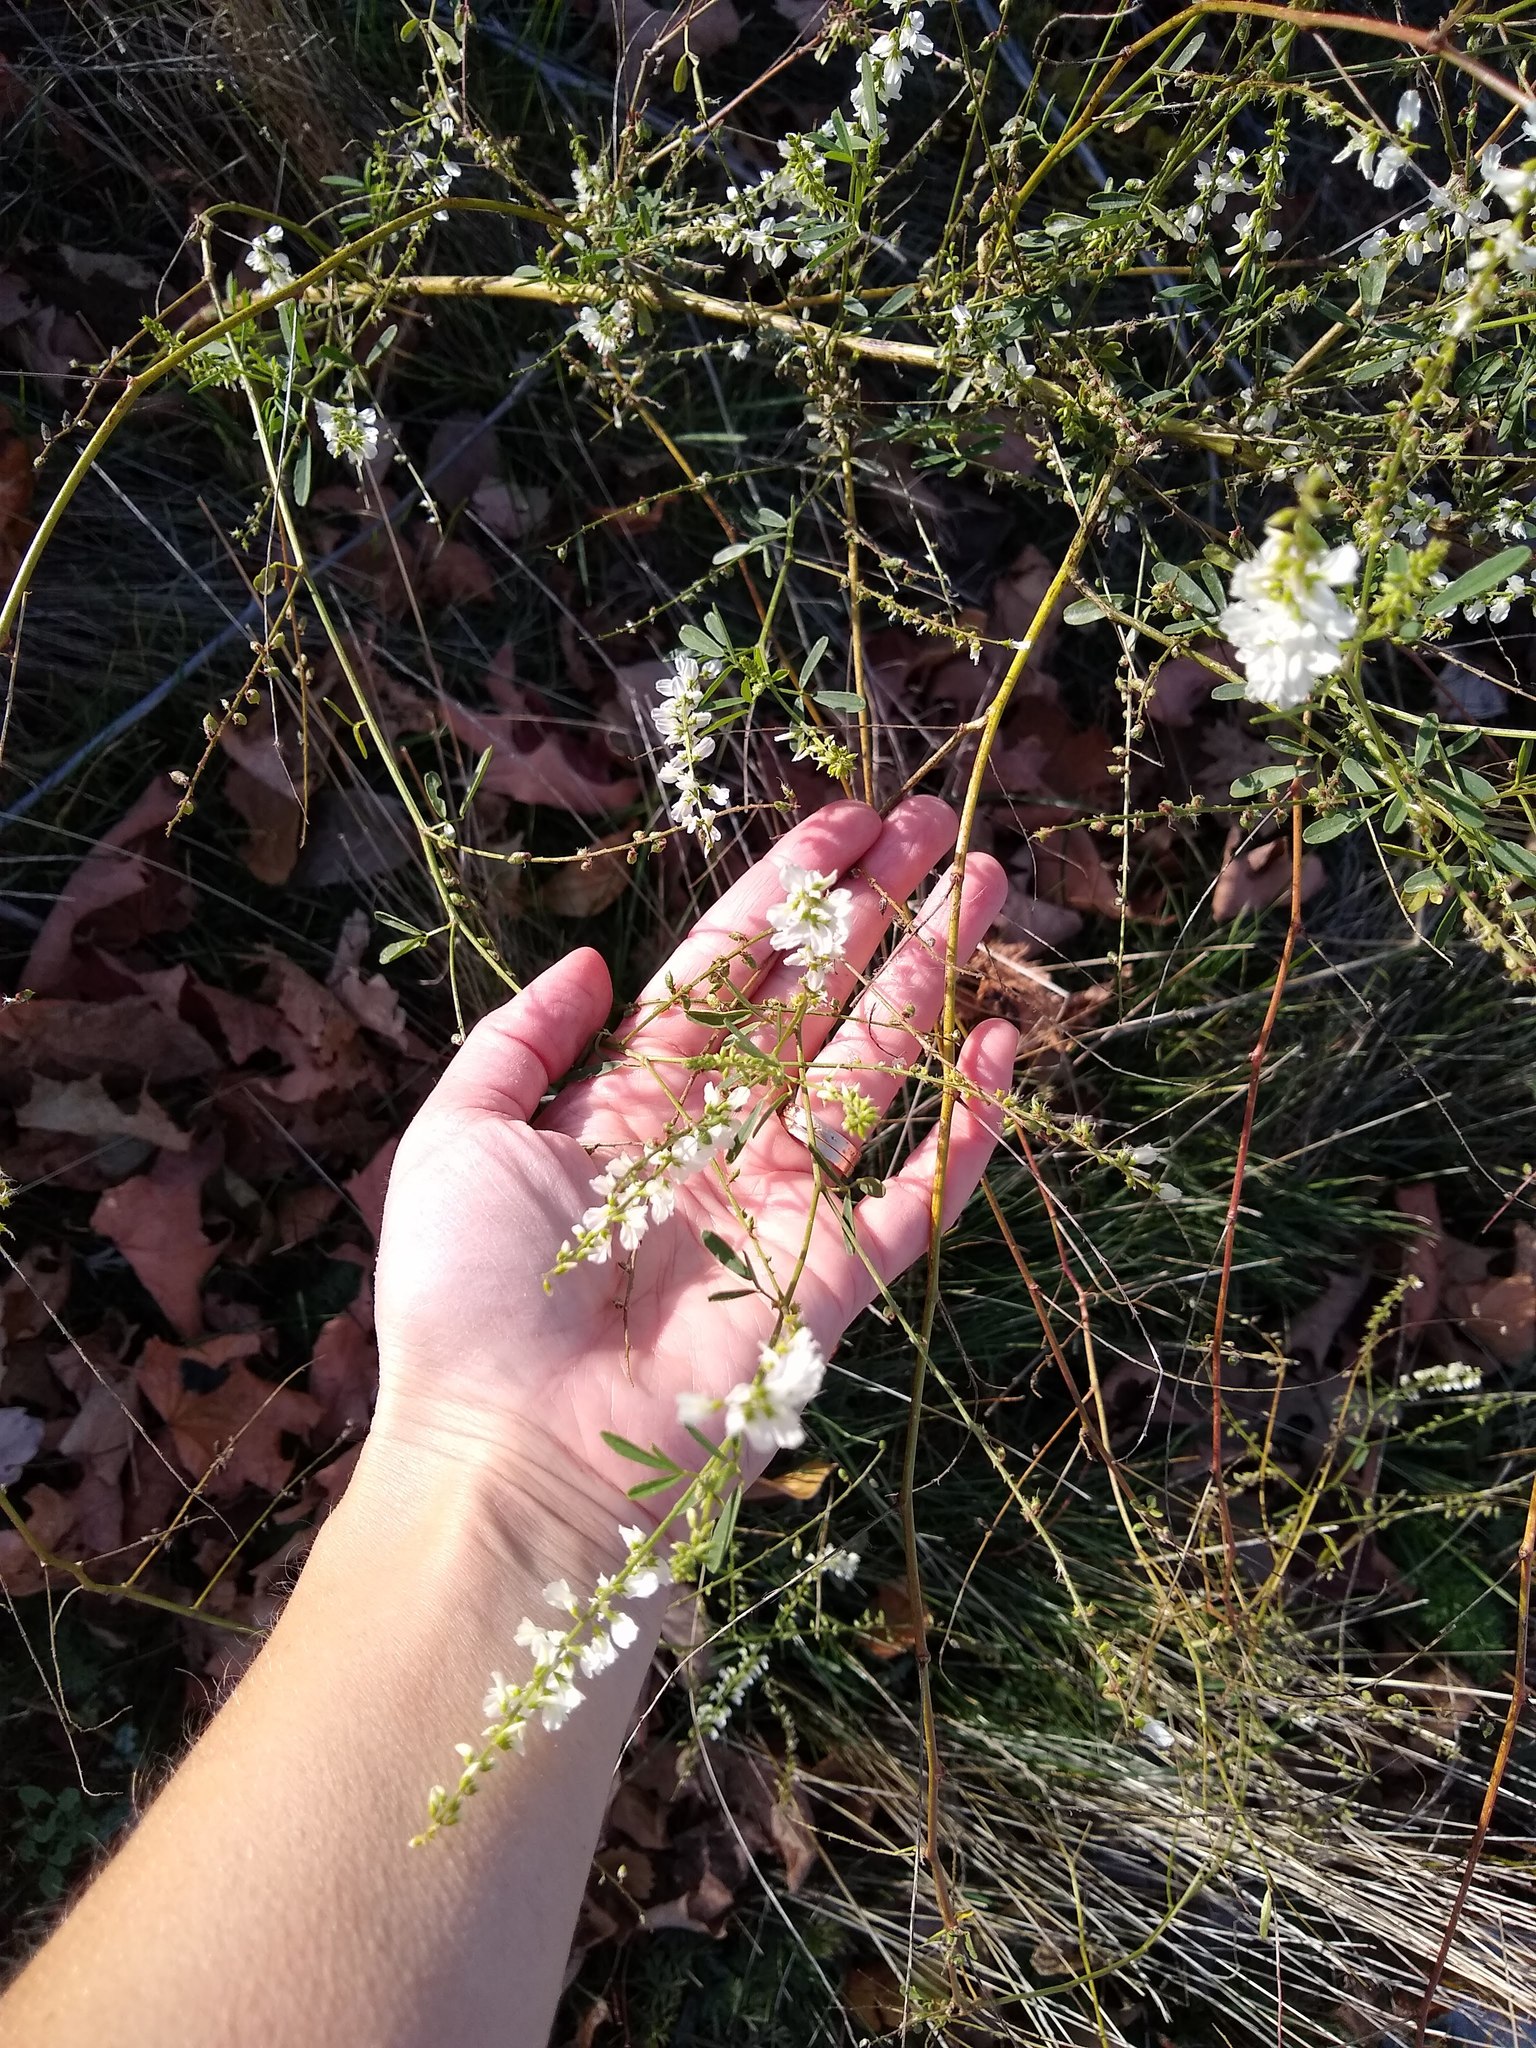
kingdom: Plantae
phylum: Tracheophyta
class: Magnoliopsida
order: Fabales
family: Fabaceae
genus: Melilotus
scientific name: Melilotus albus
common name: White melilot
